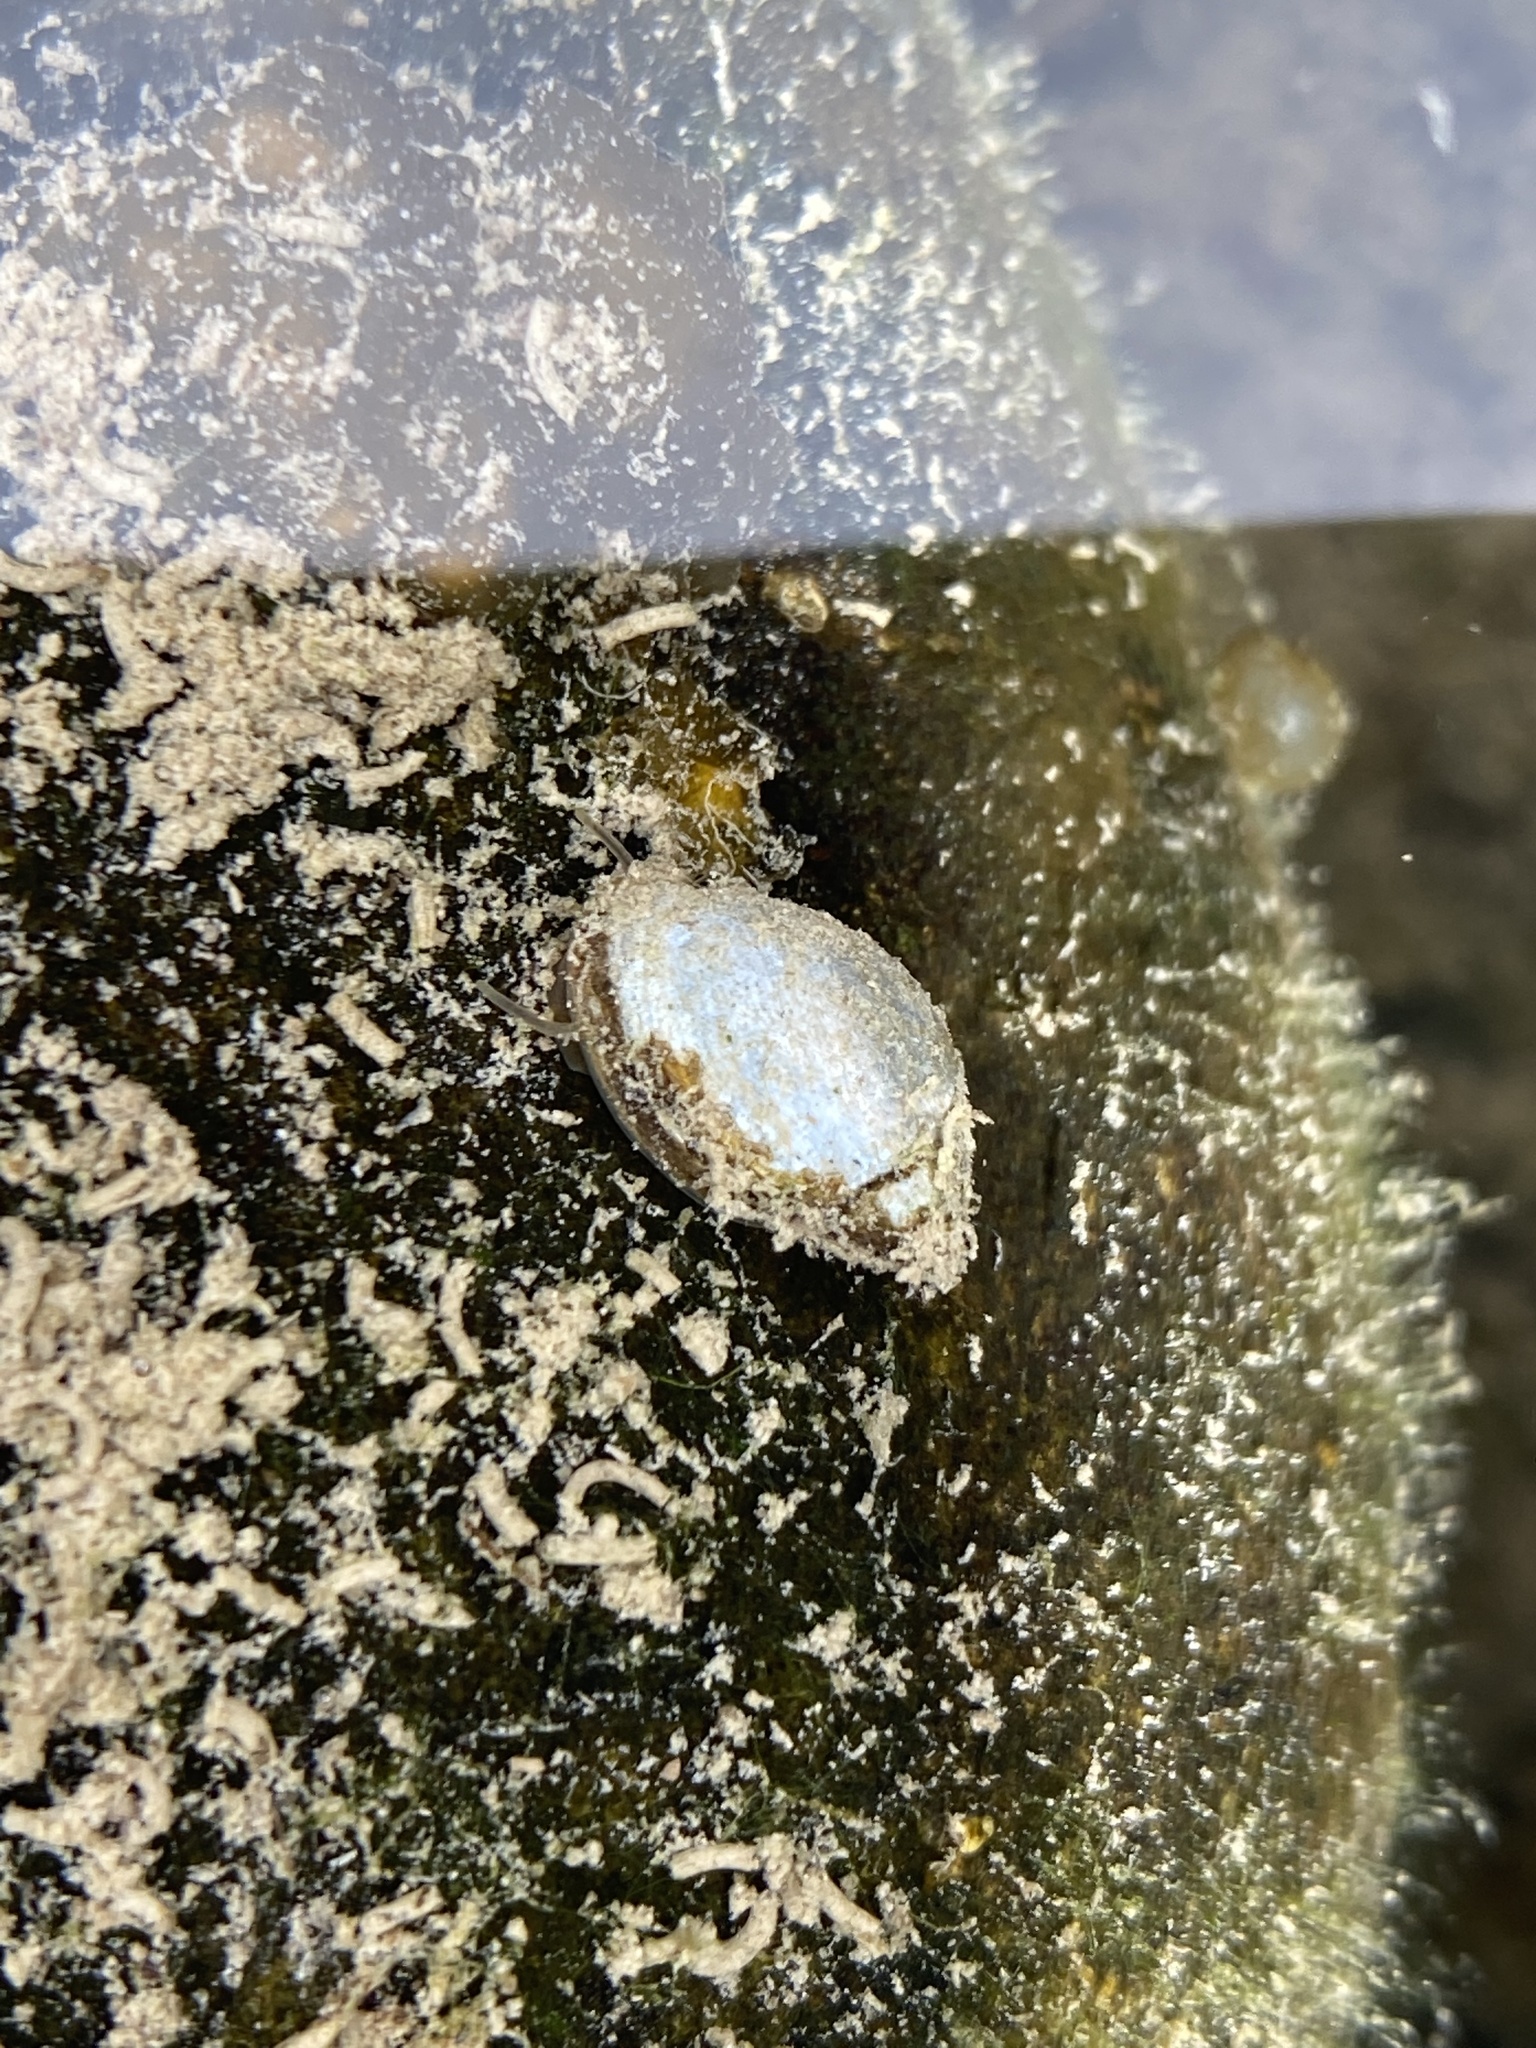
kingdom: Animalia
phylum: Mollusca
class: Gastropoda
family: Physidae
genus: Physella
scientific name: Physella acuta
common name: European physa
